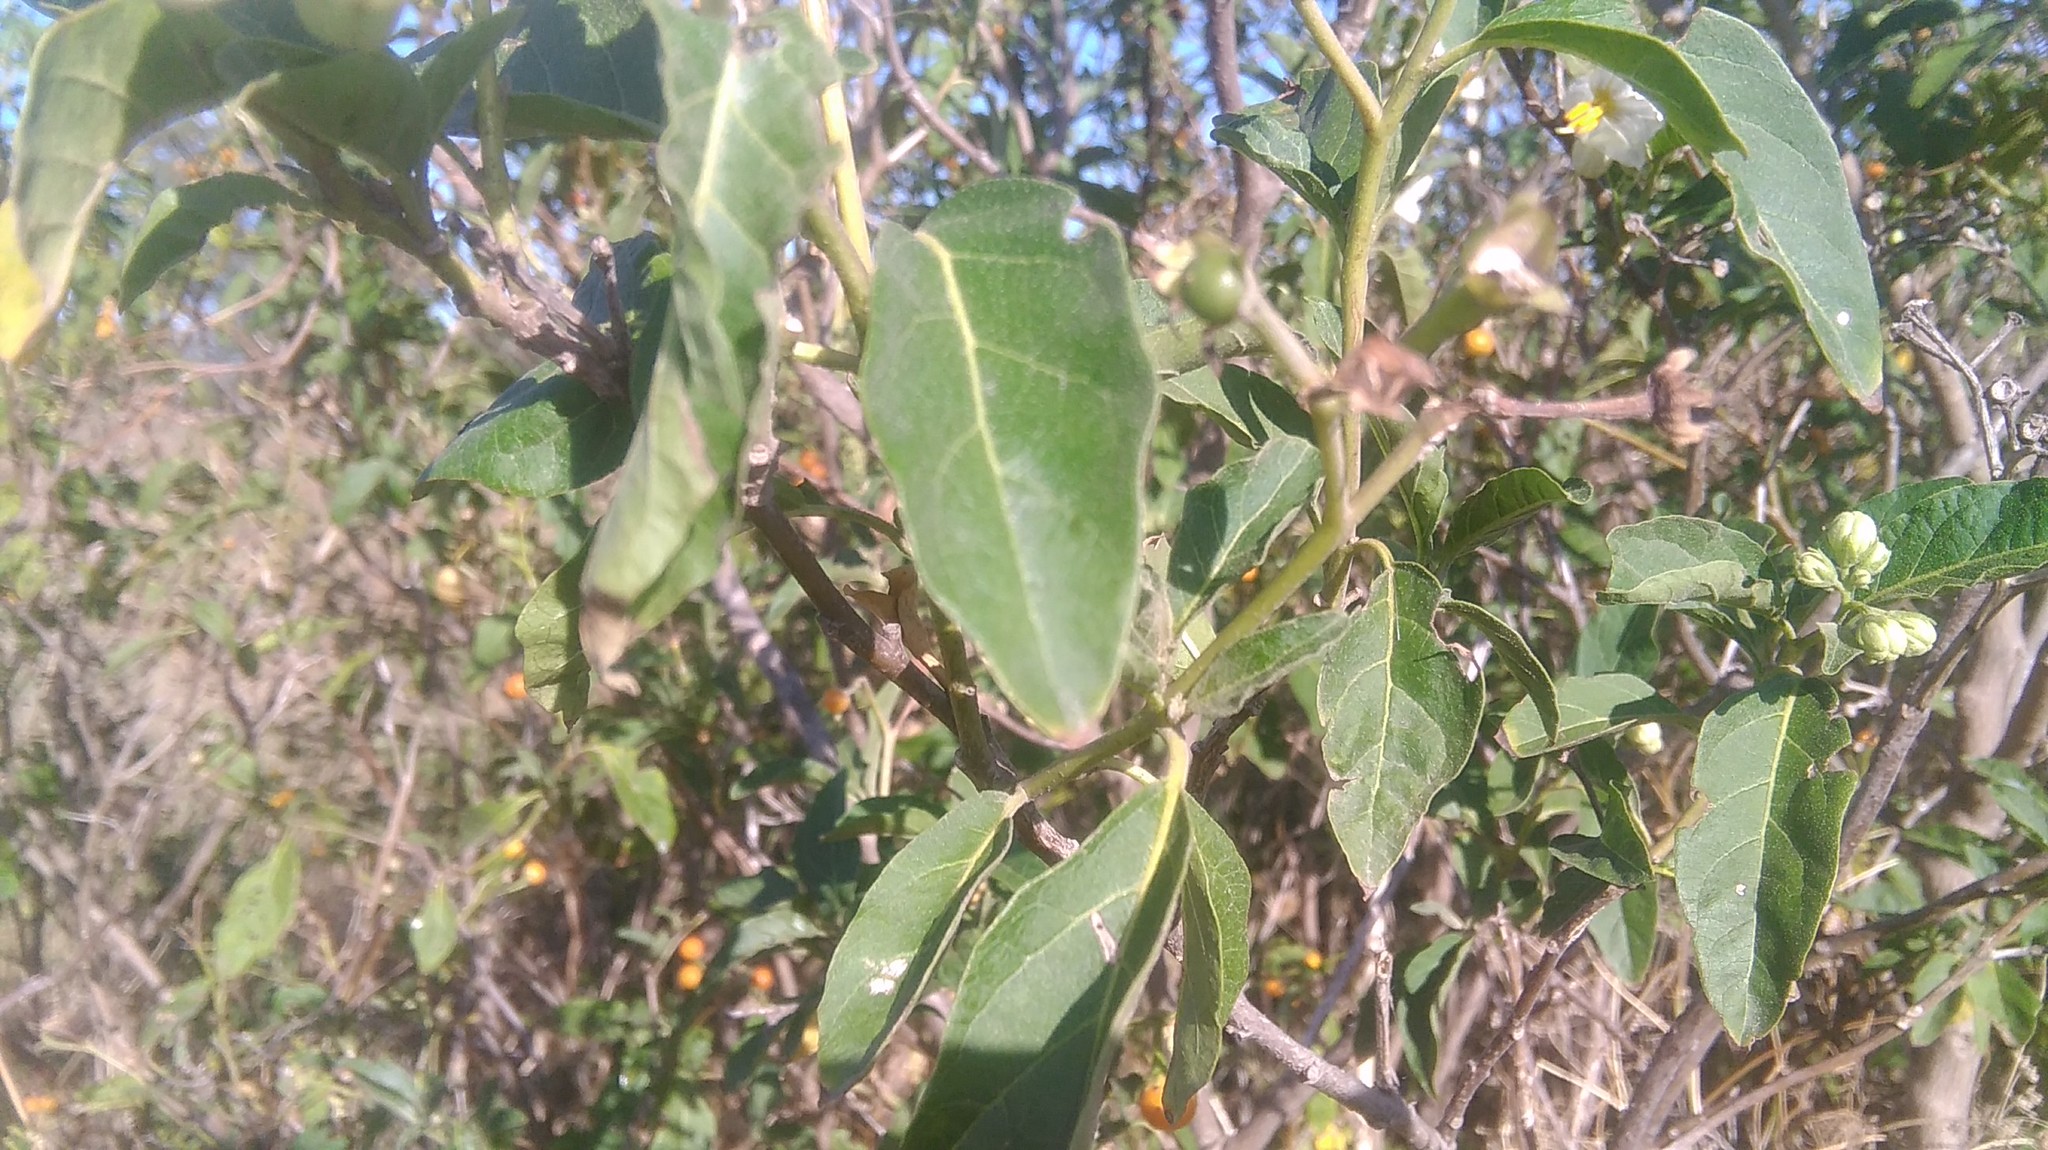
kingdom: Plantae
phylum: Tracheophyta
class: Magnoliopsida
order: Solanales
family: Solanaceae
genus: Solanum
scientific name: Solanum bonariense
